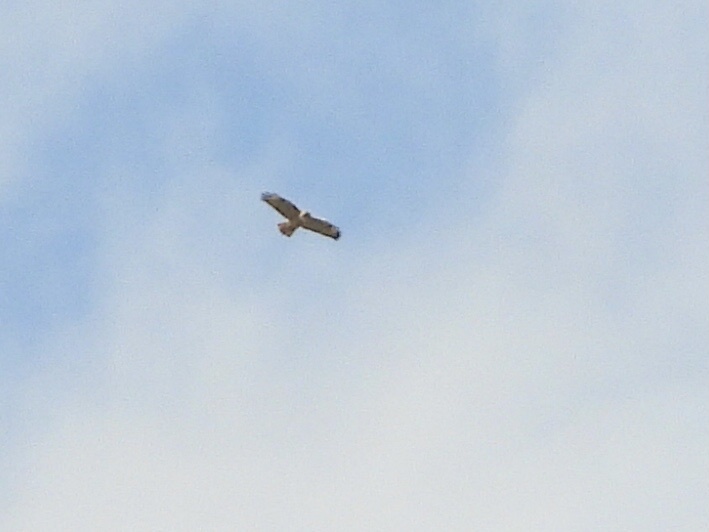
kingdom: Animalia
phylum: Chordata
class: Aves
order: Accipitriformes
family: Accipitridae
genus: Buteo
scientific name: Buteo jamaicensis
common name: Red-tailed hawk
